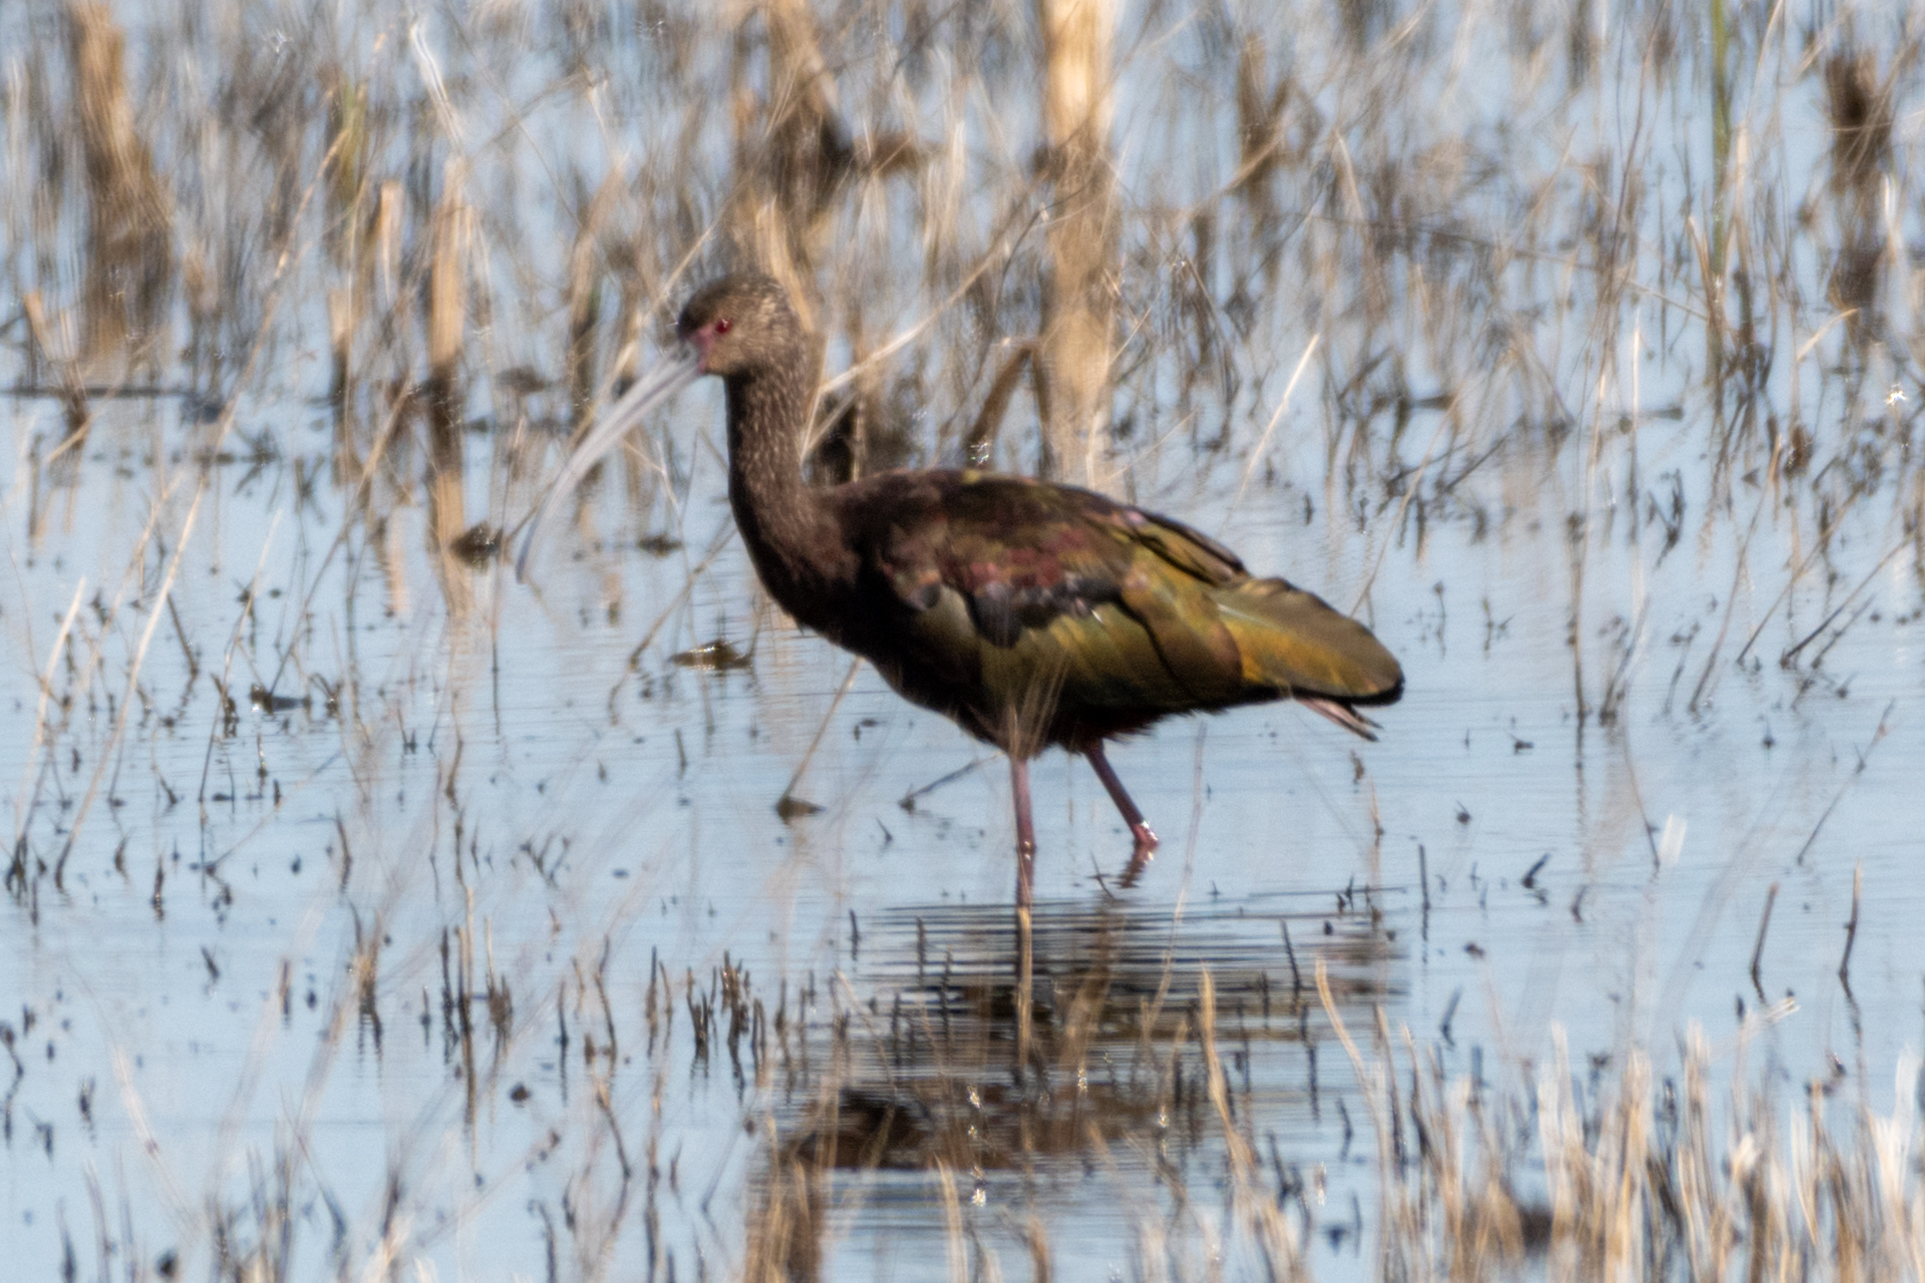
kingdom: Animalia
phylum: Chordata
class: Aves
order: Pelecaniformes
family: Threskiornithidae
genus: Plegadis
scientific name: Plegadis chihi
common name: White-faced ibis
